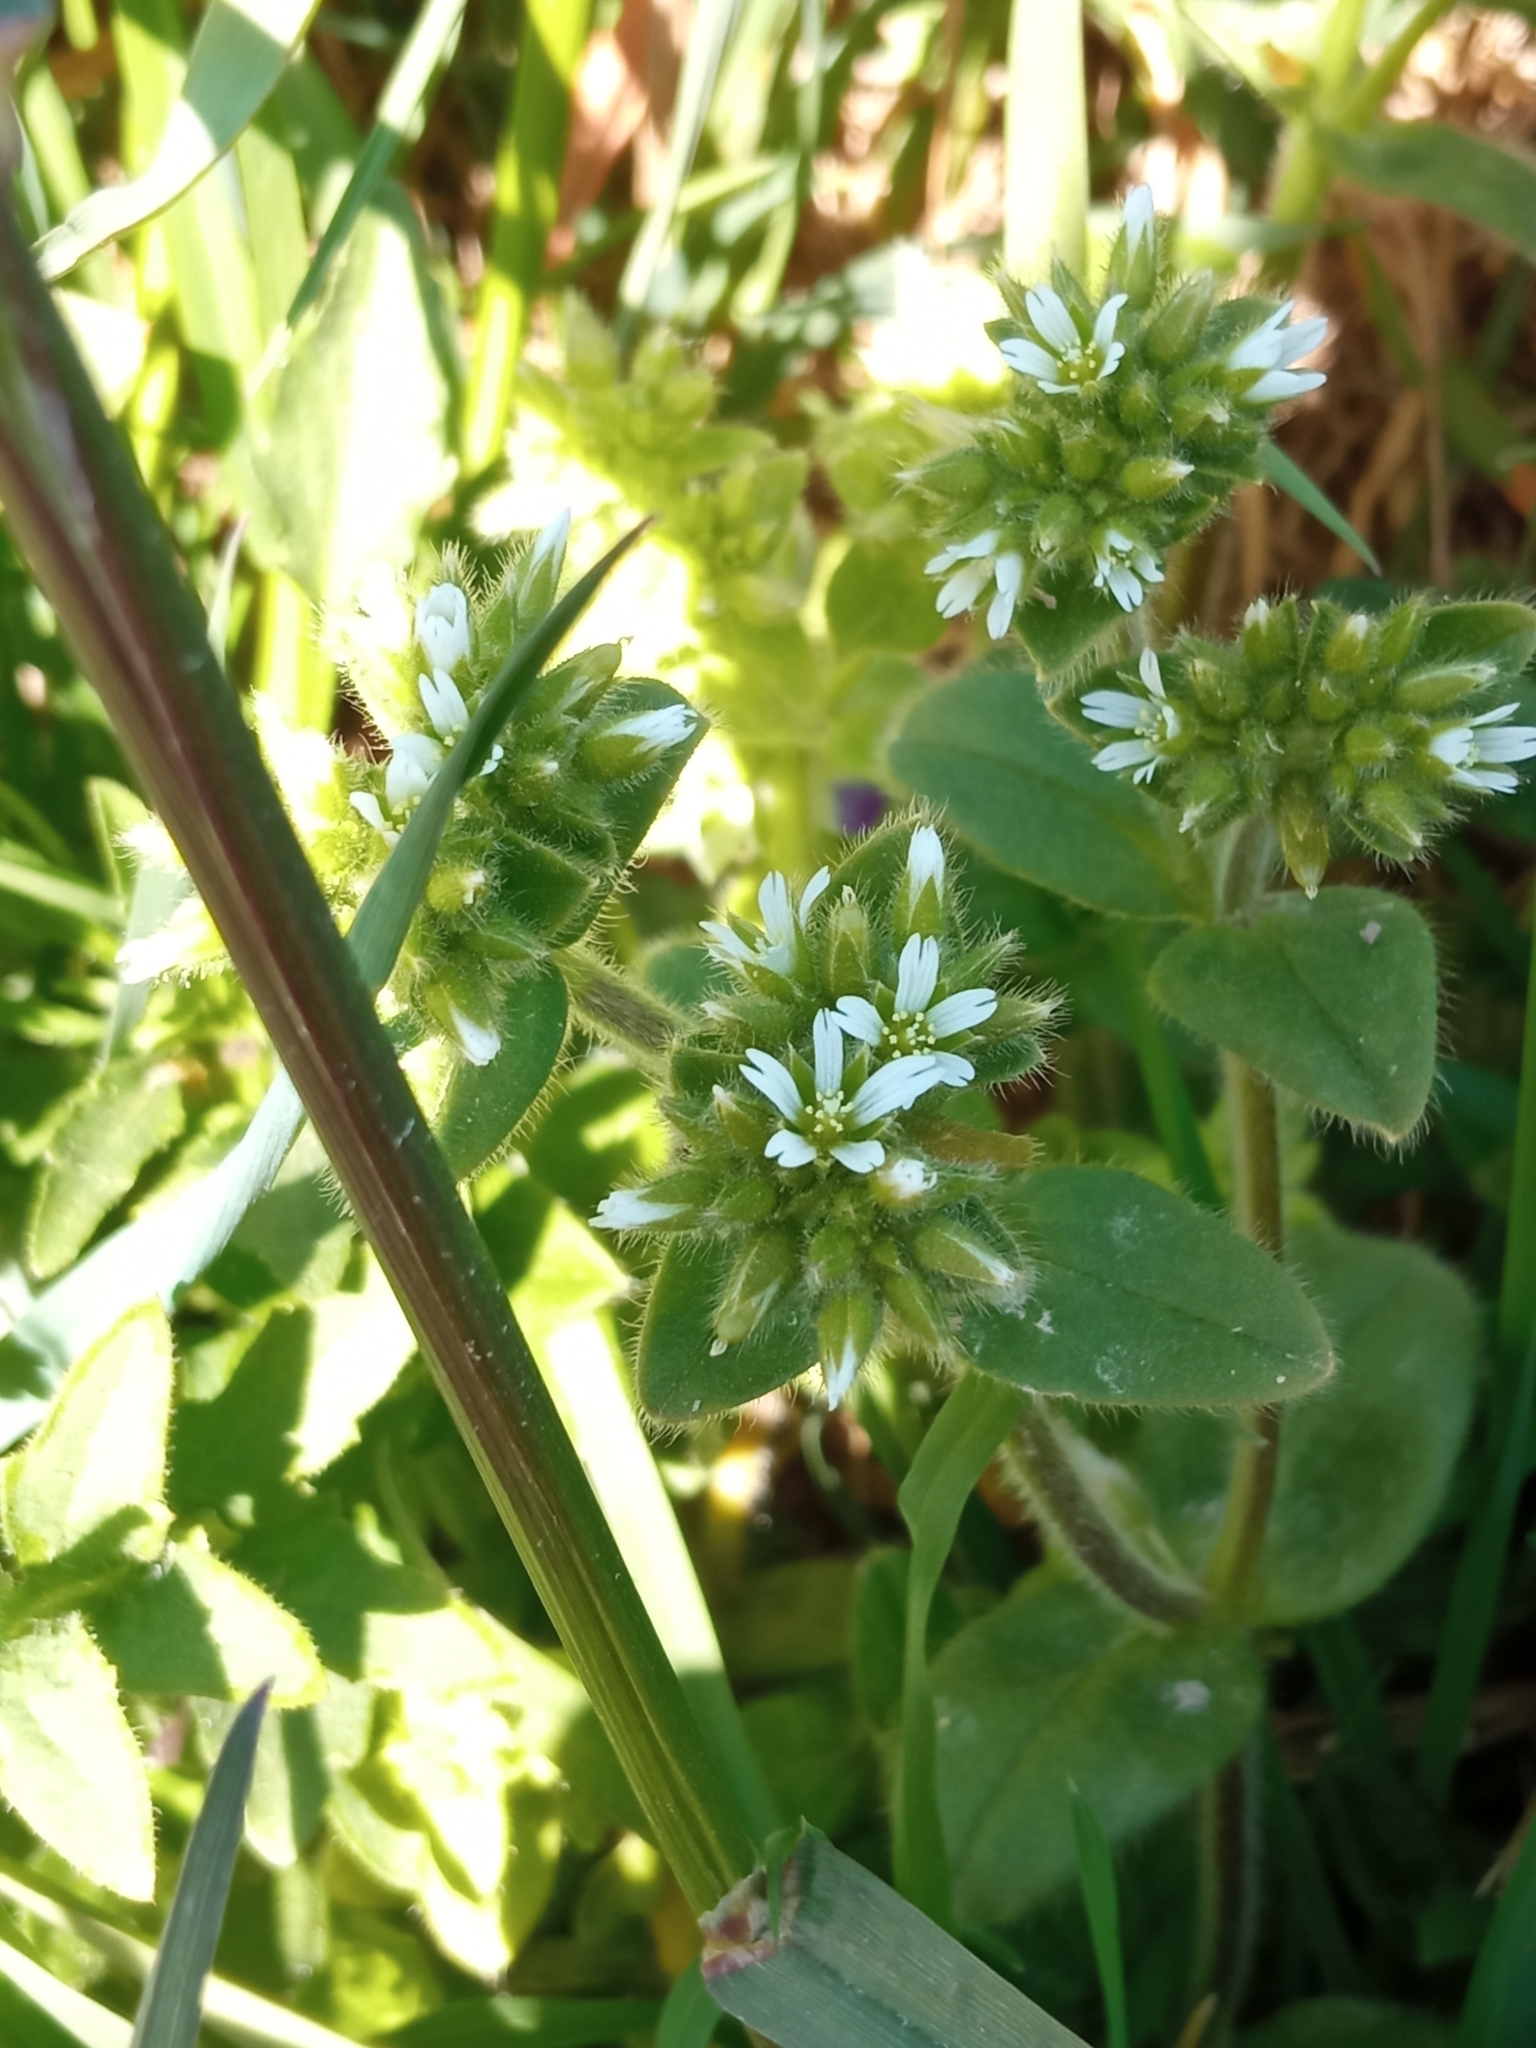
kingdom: Plantae
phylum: Tracheophyta
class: Magnoliopsida
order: Caryophyllales
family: Caryophyllaceae
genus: Cerastium
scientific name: Cerastium glomeratum
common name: Sticky chickweed
